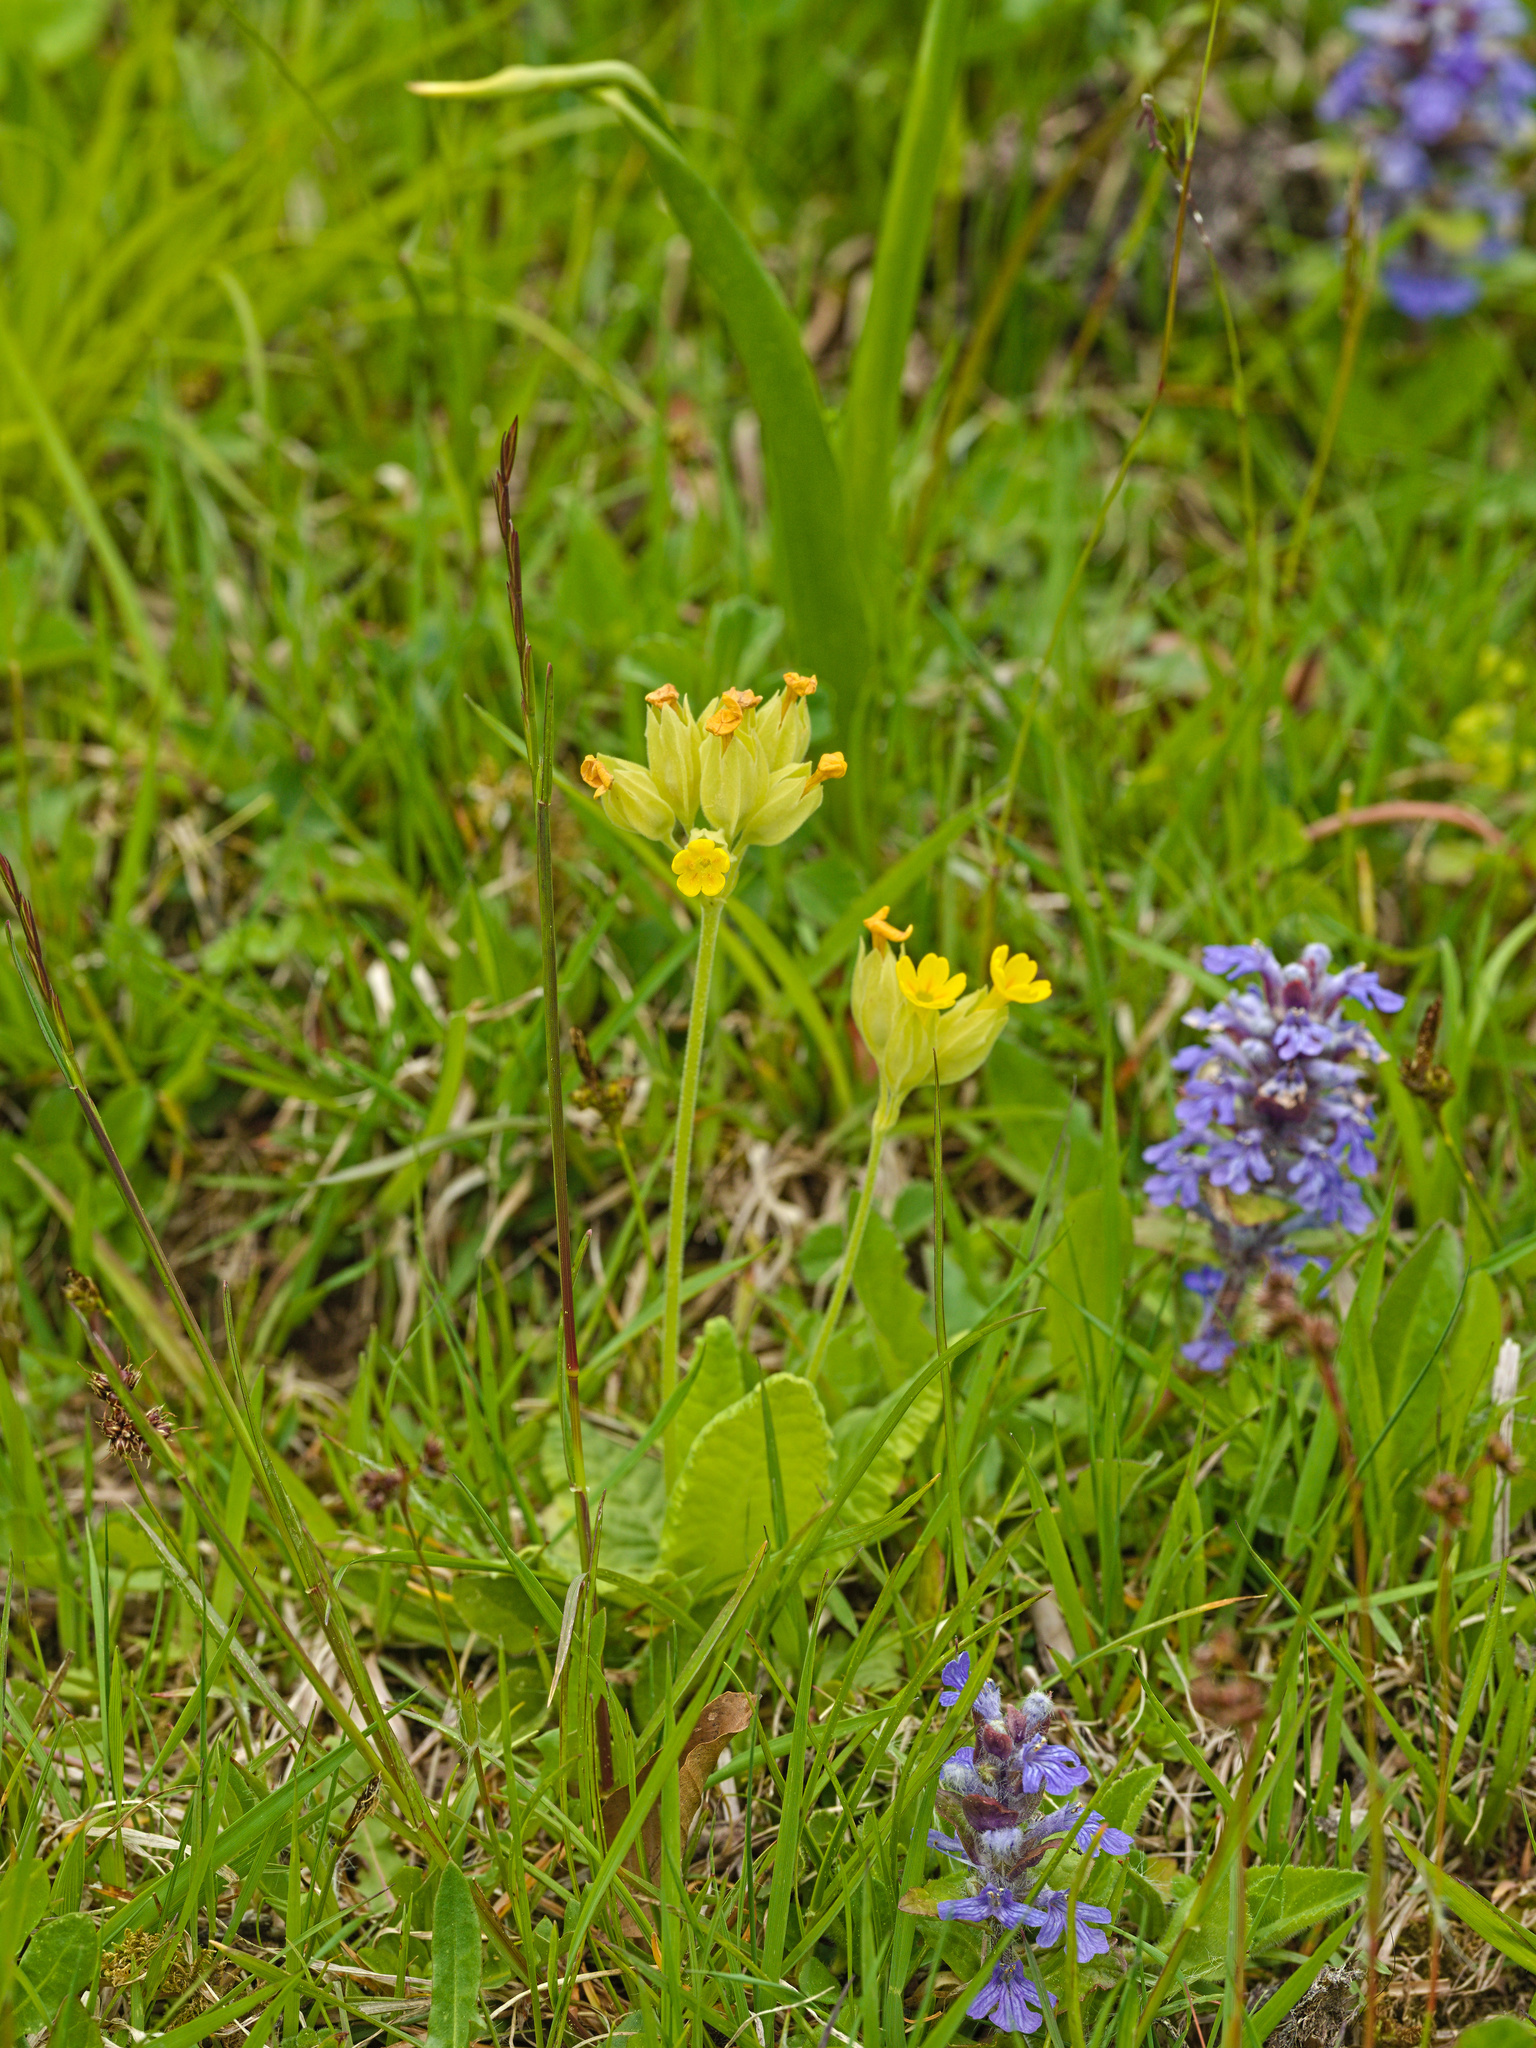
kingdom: Plantae
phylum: Tracheophyta
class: Magnoliopsida
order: Ericales
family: Primulaceae
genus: Primula
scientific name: Primula veris
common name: Cowslip
